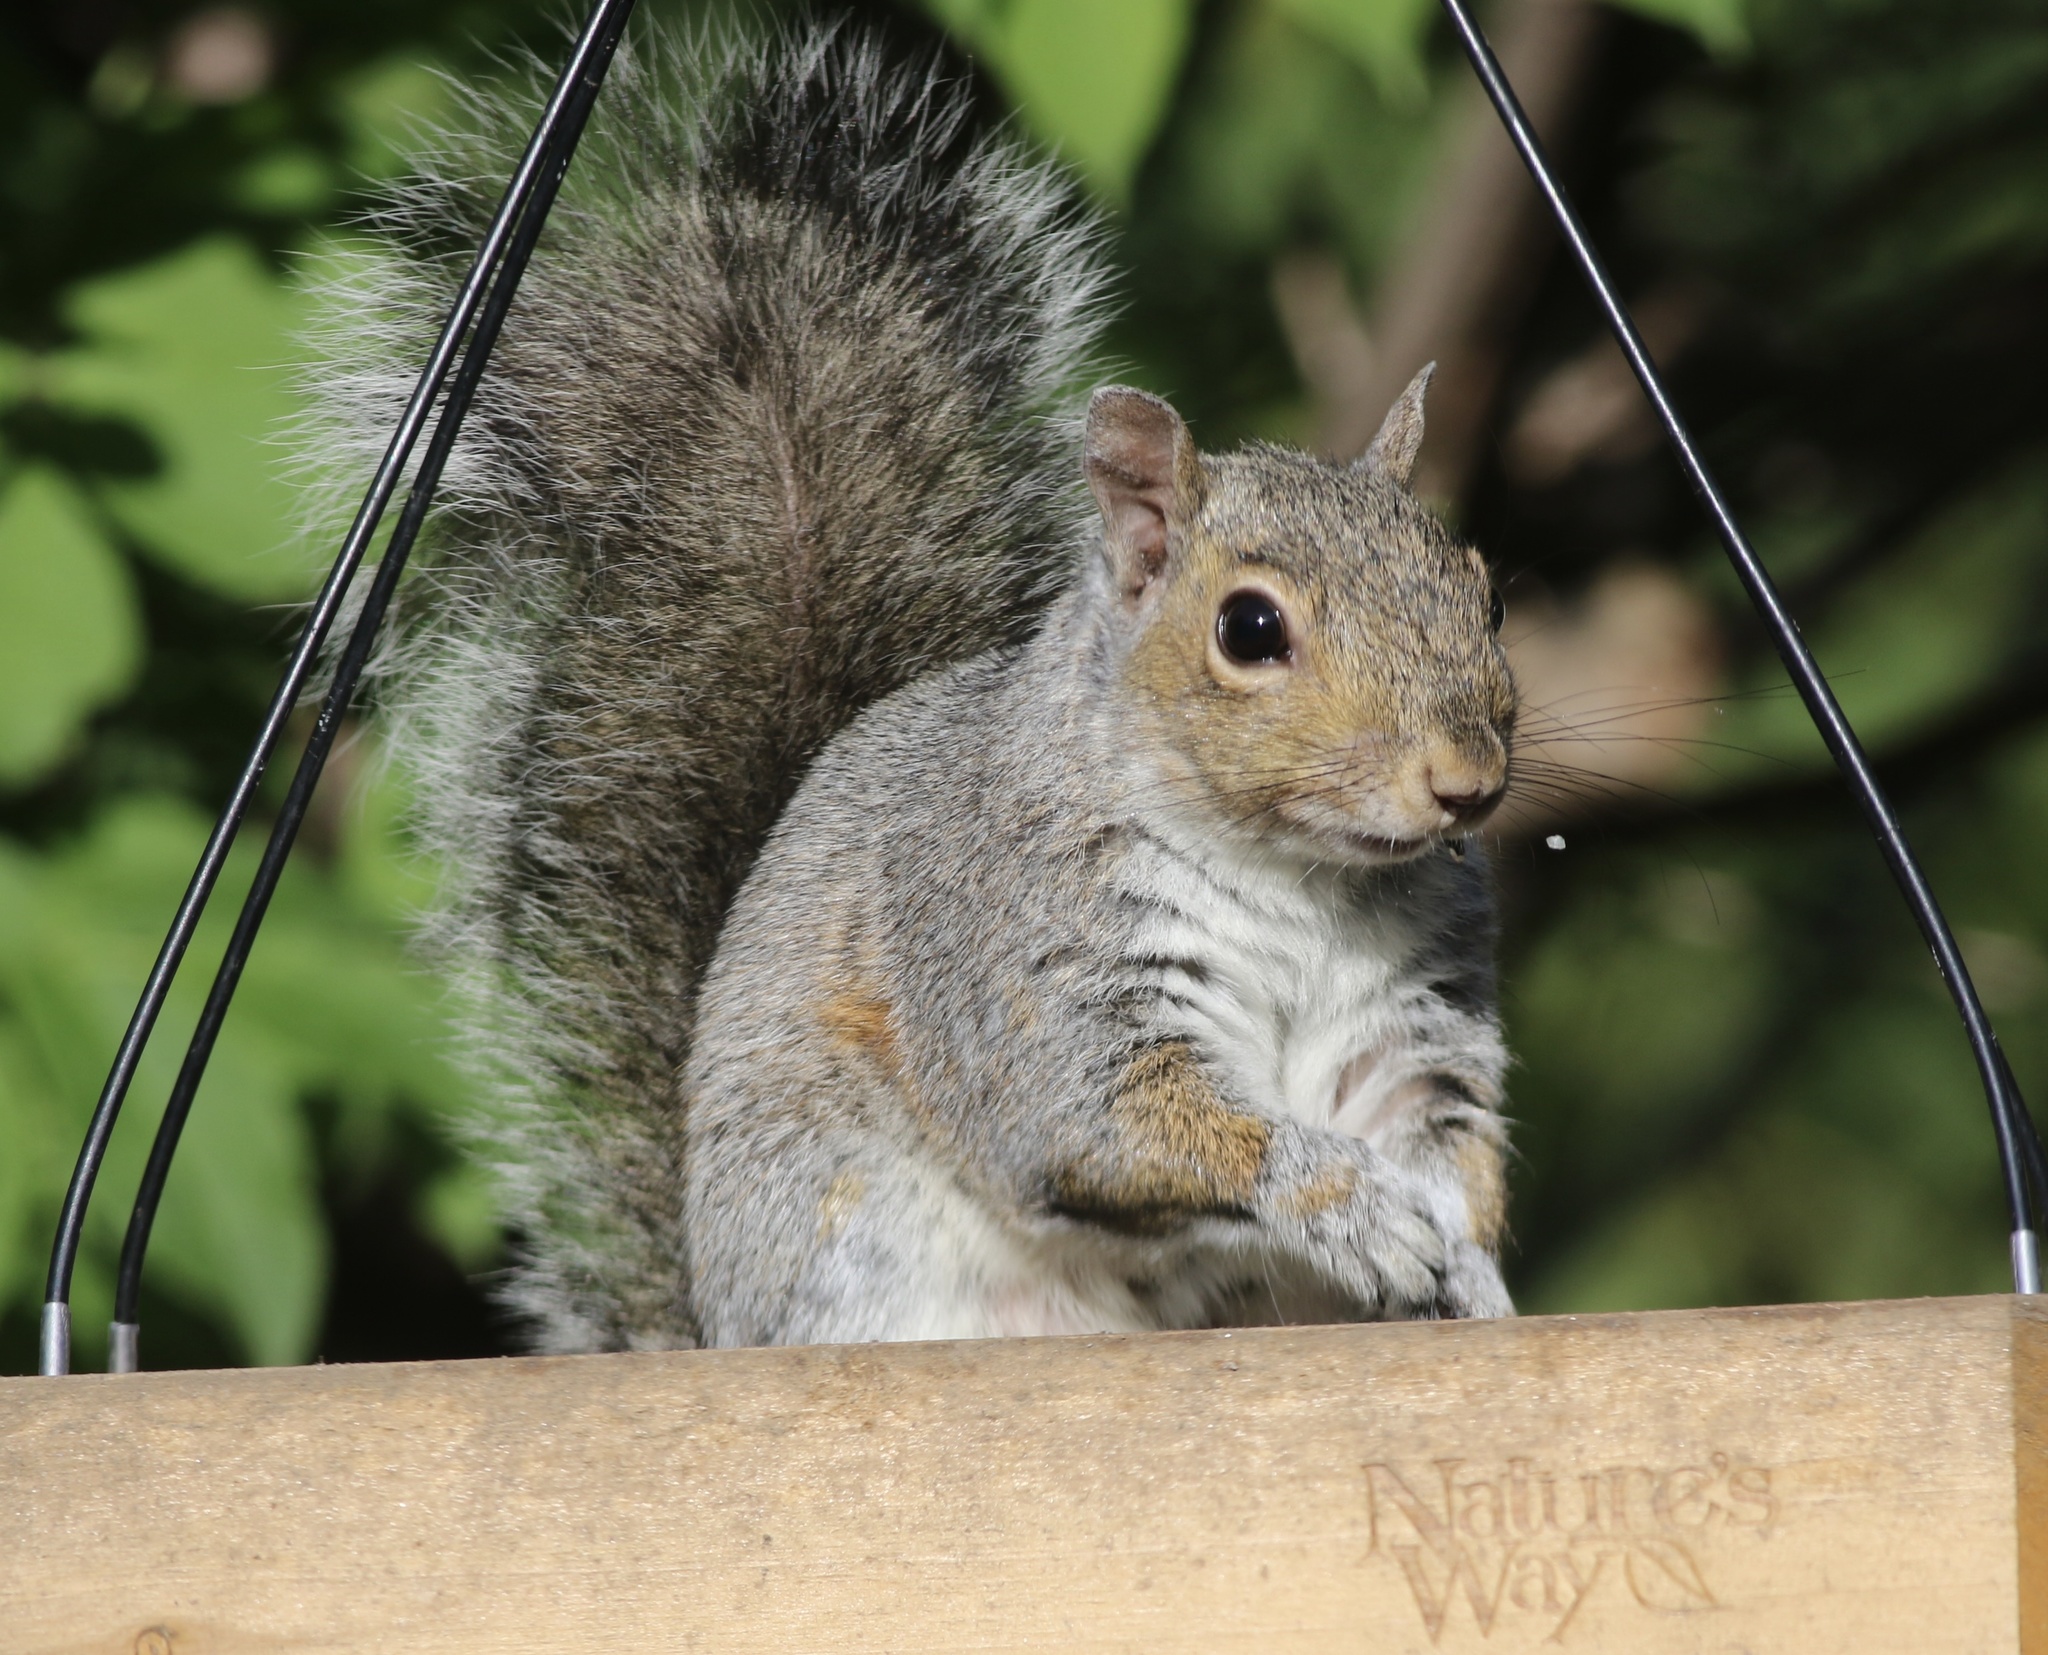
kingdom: Animalia
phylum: Chordata
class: Mammalia
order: Rodentia
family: Sciuridae
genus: Sciurus
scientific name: Sciurus carolinensis
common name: Eastern gray squirrel
